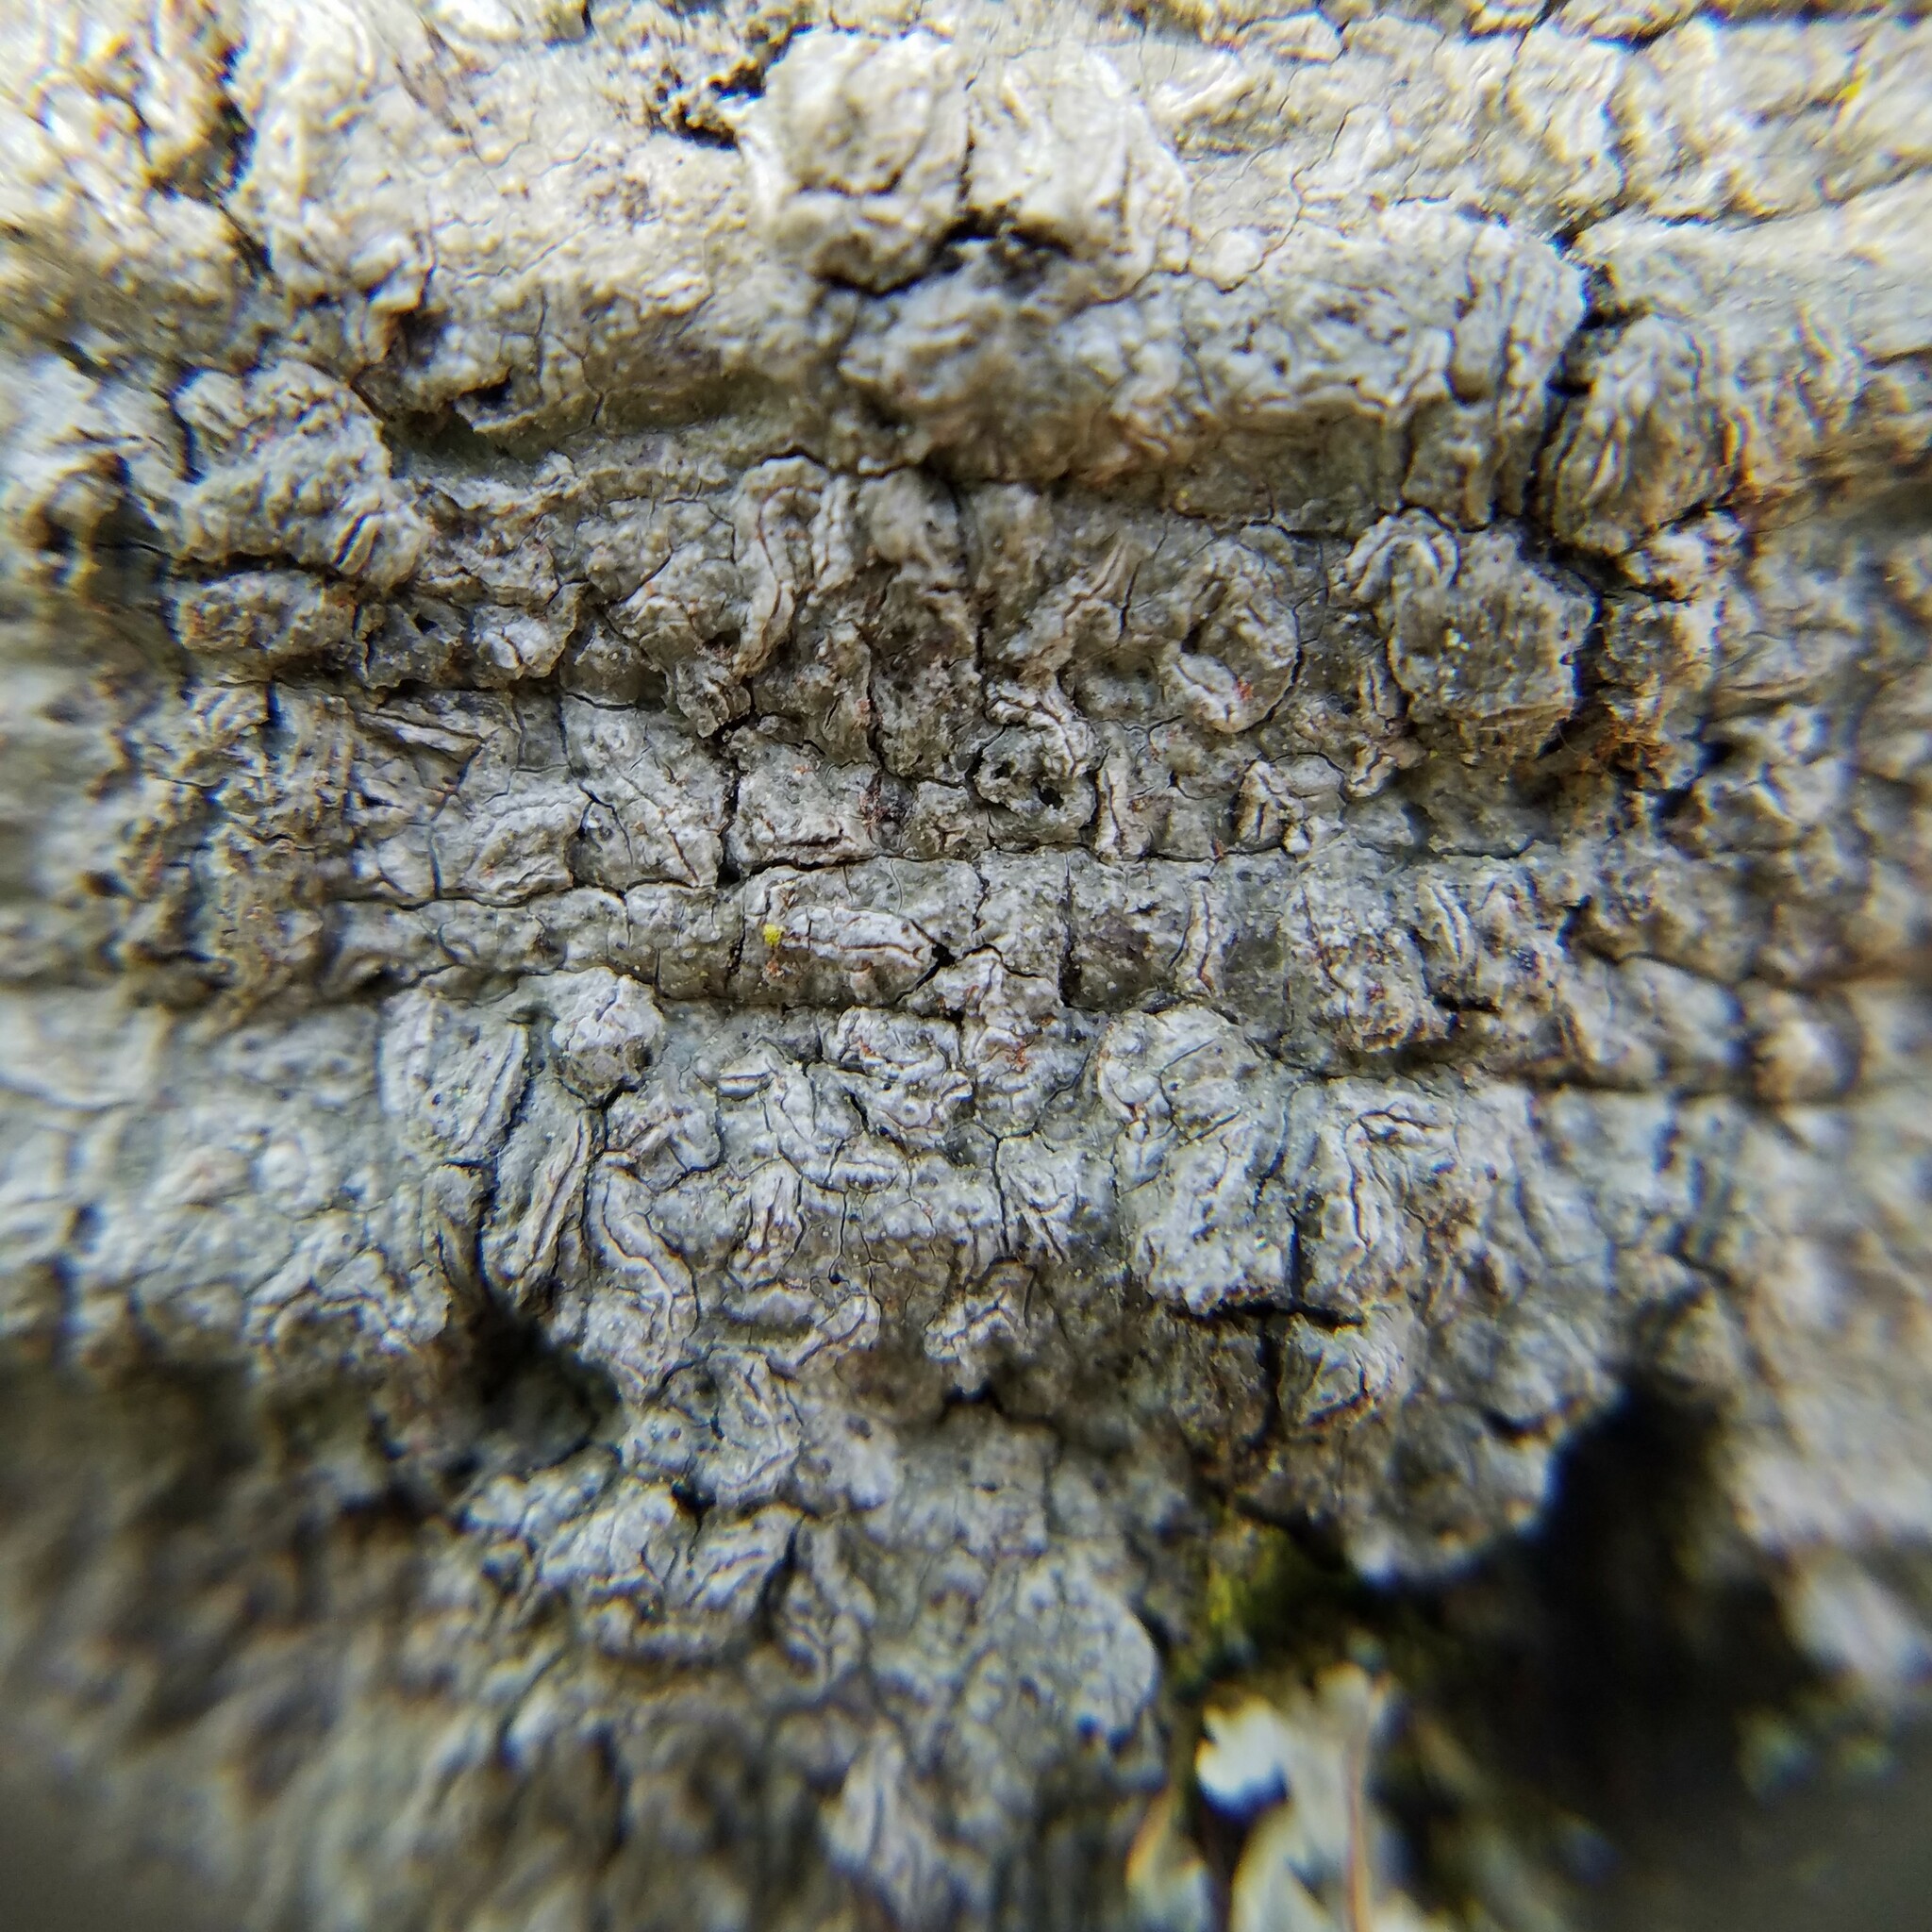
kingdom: Fungi
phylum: Ascomycota
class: Lecanoromycetes
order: Ostropales
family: Graphidaceae
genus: Fissurina
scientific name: Fissurina insidiosa
